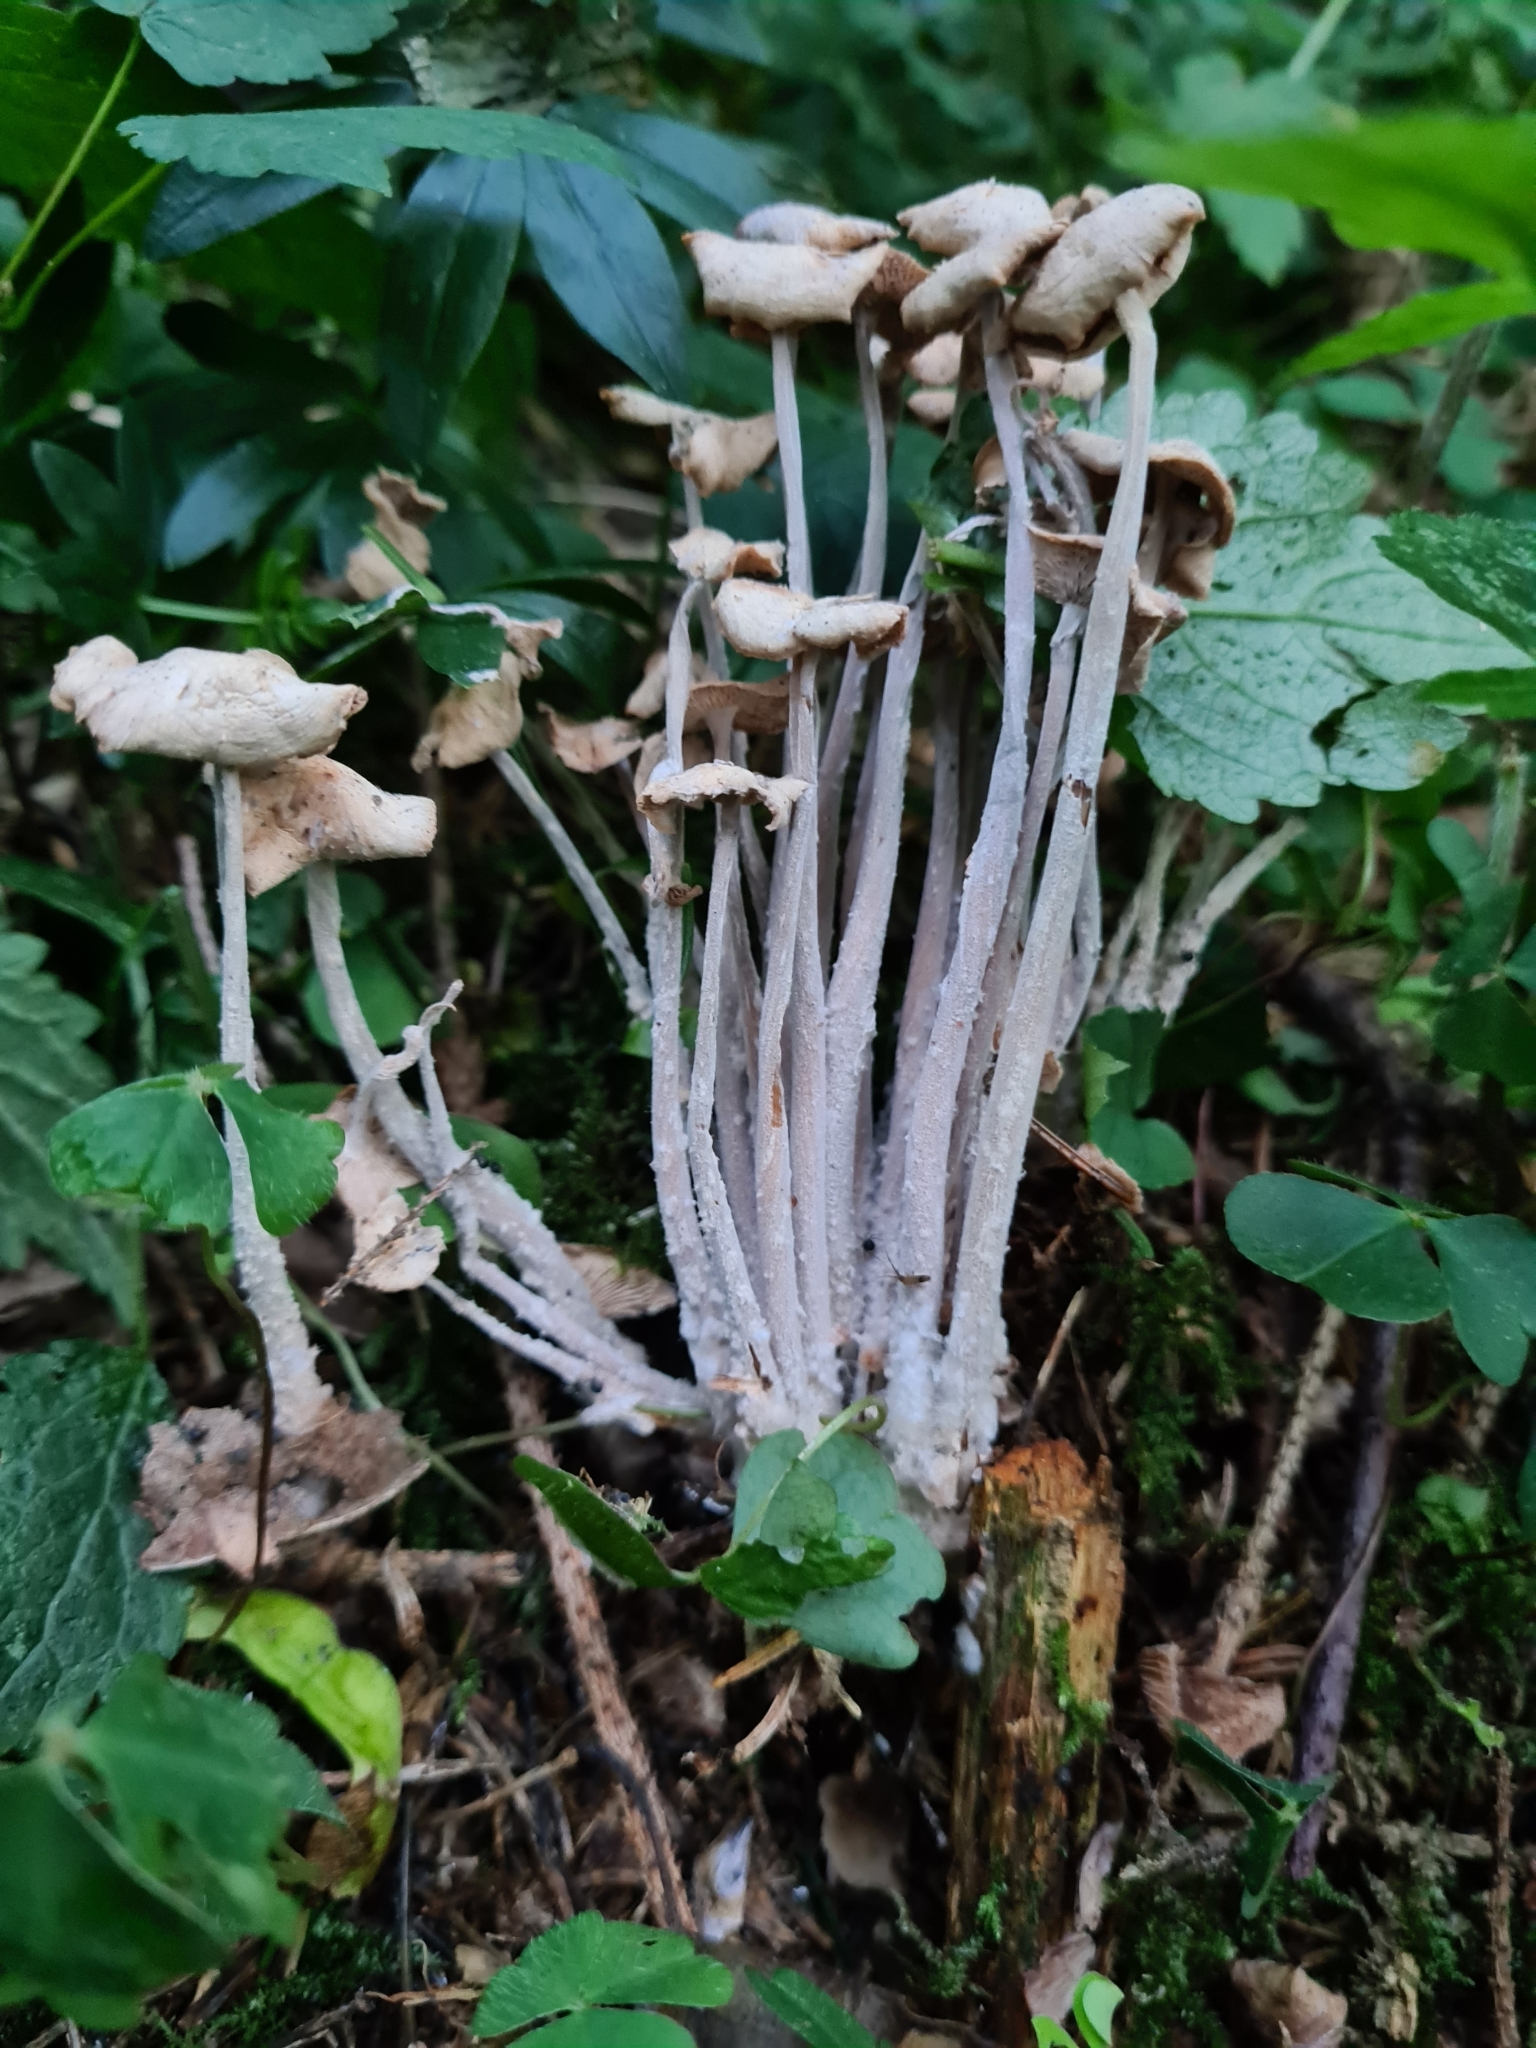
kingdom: Fungi
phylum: Basidiomycota
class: Agaricomycetes
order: Agaricales
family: Omphalotaceae
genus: Collybiopsis
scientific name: Collybiopsis confluens
